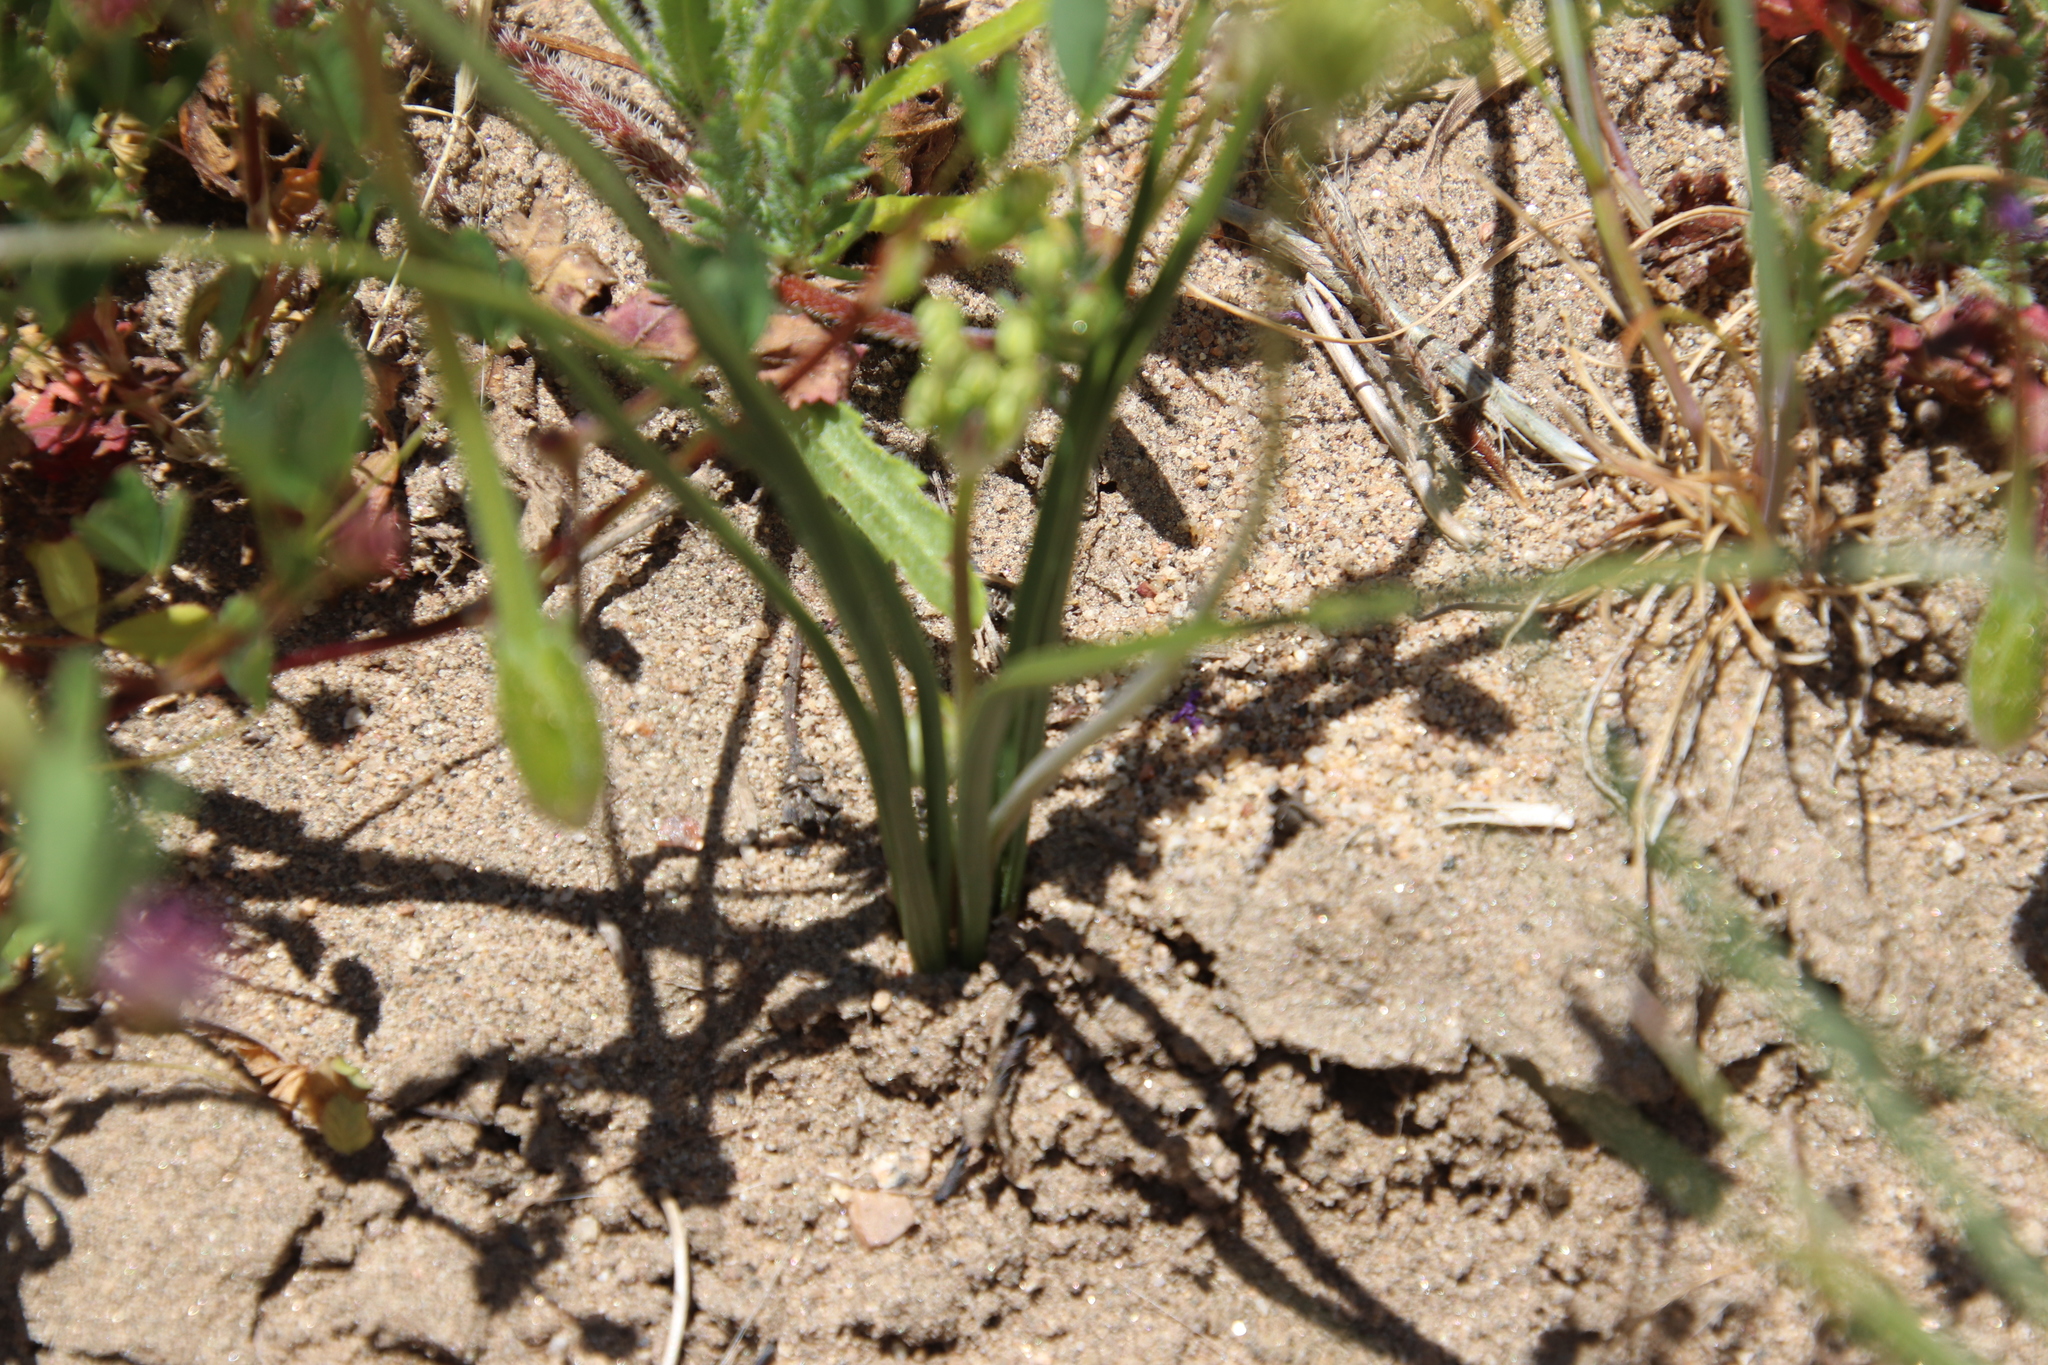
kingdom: Plantae
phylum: Tracheophyta
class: Liliopsida
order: Asparagales
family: Asparagaceae
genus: Muilla
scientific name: Muilla maritima
